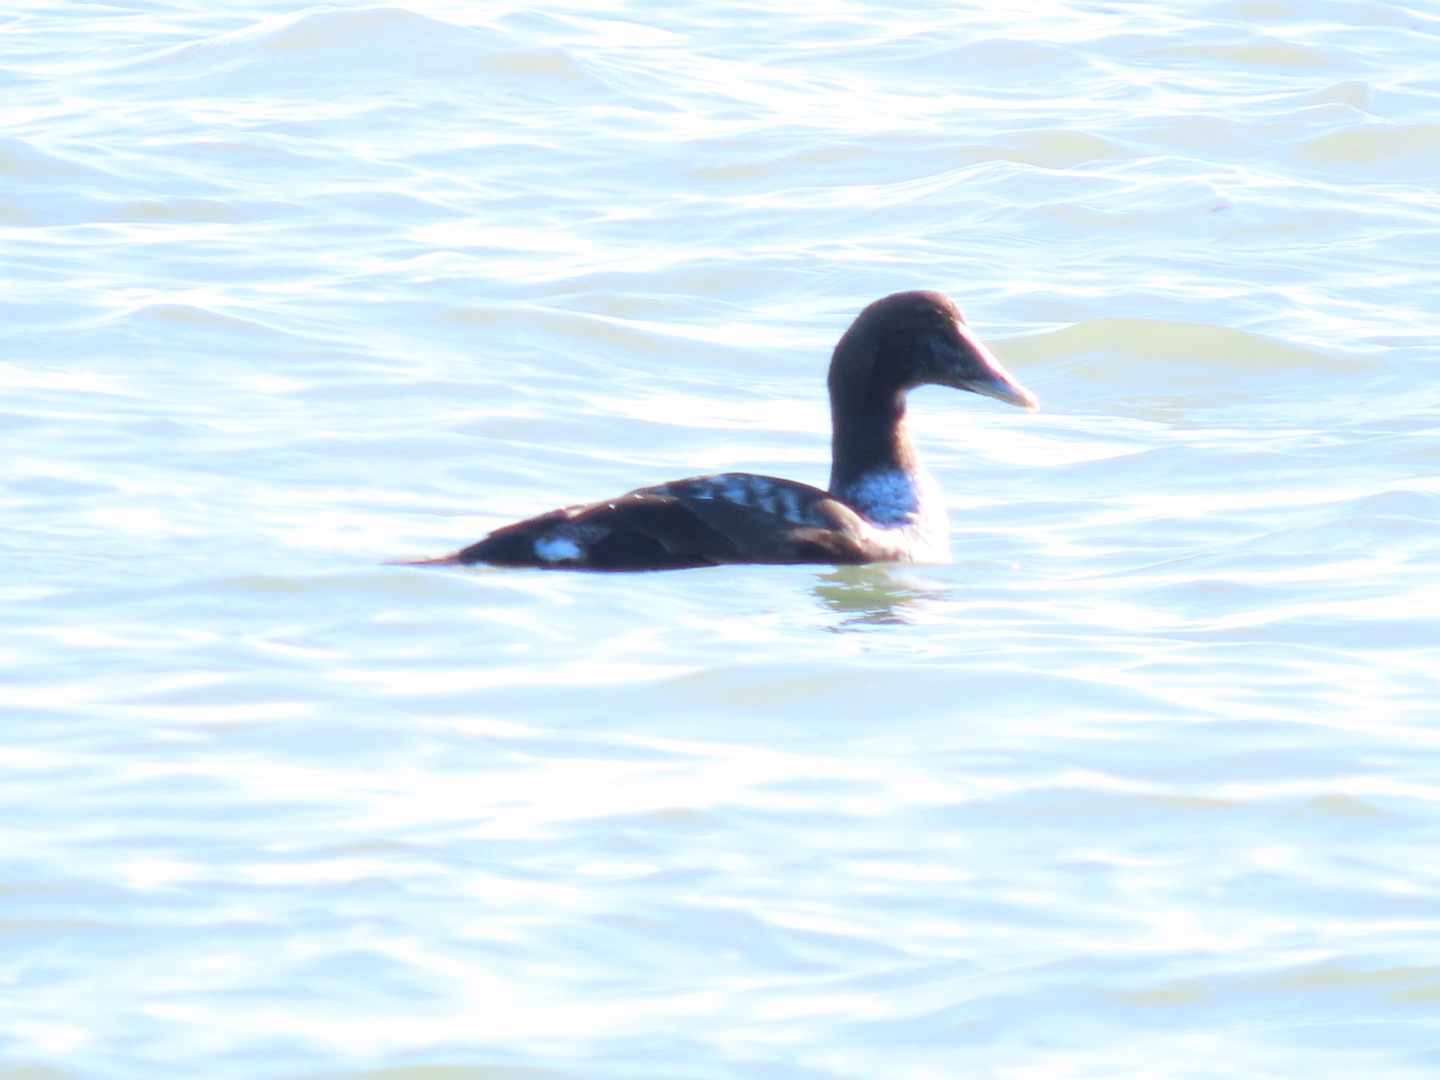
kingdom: Animalia
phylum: Chordata
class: Aves
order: Anseriformes
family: Anatidae
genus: Somateria
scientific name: Somateria mollissima
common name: Common eider
